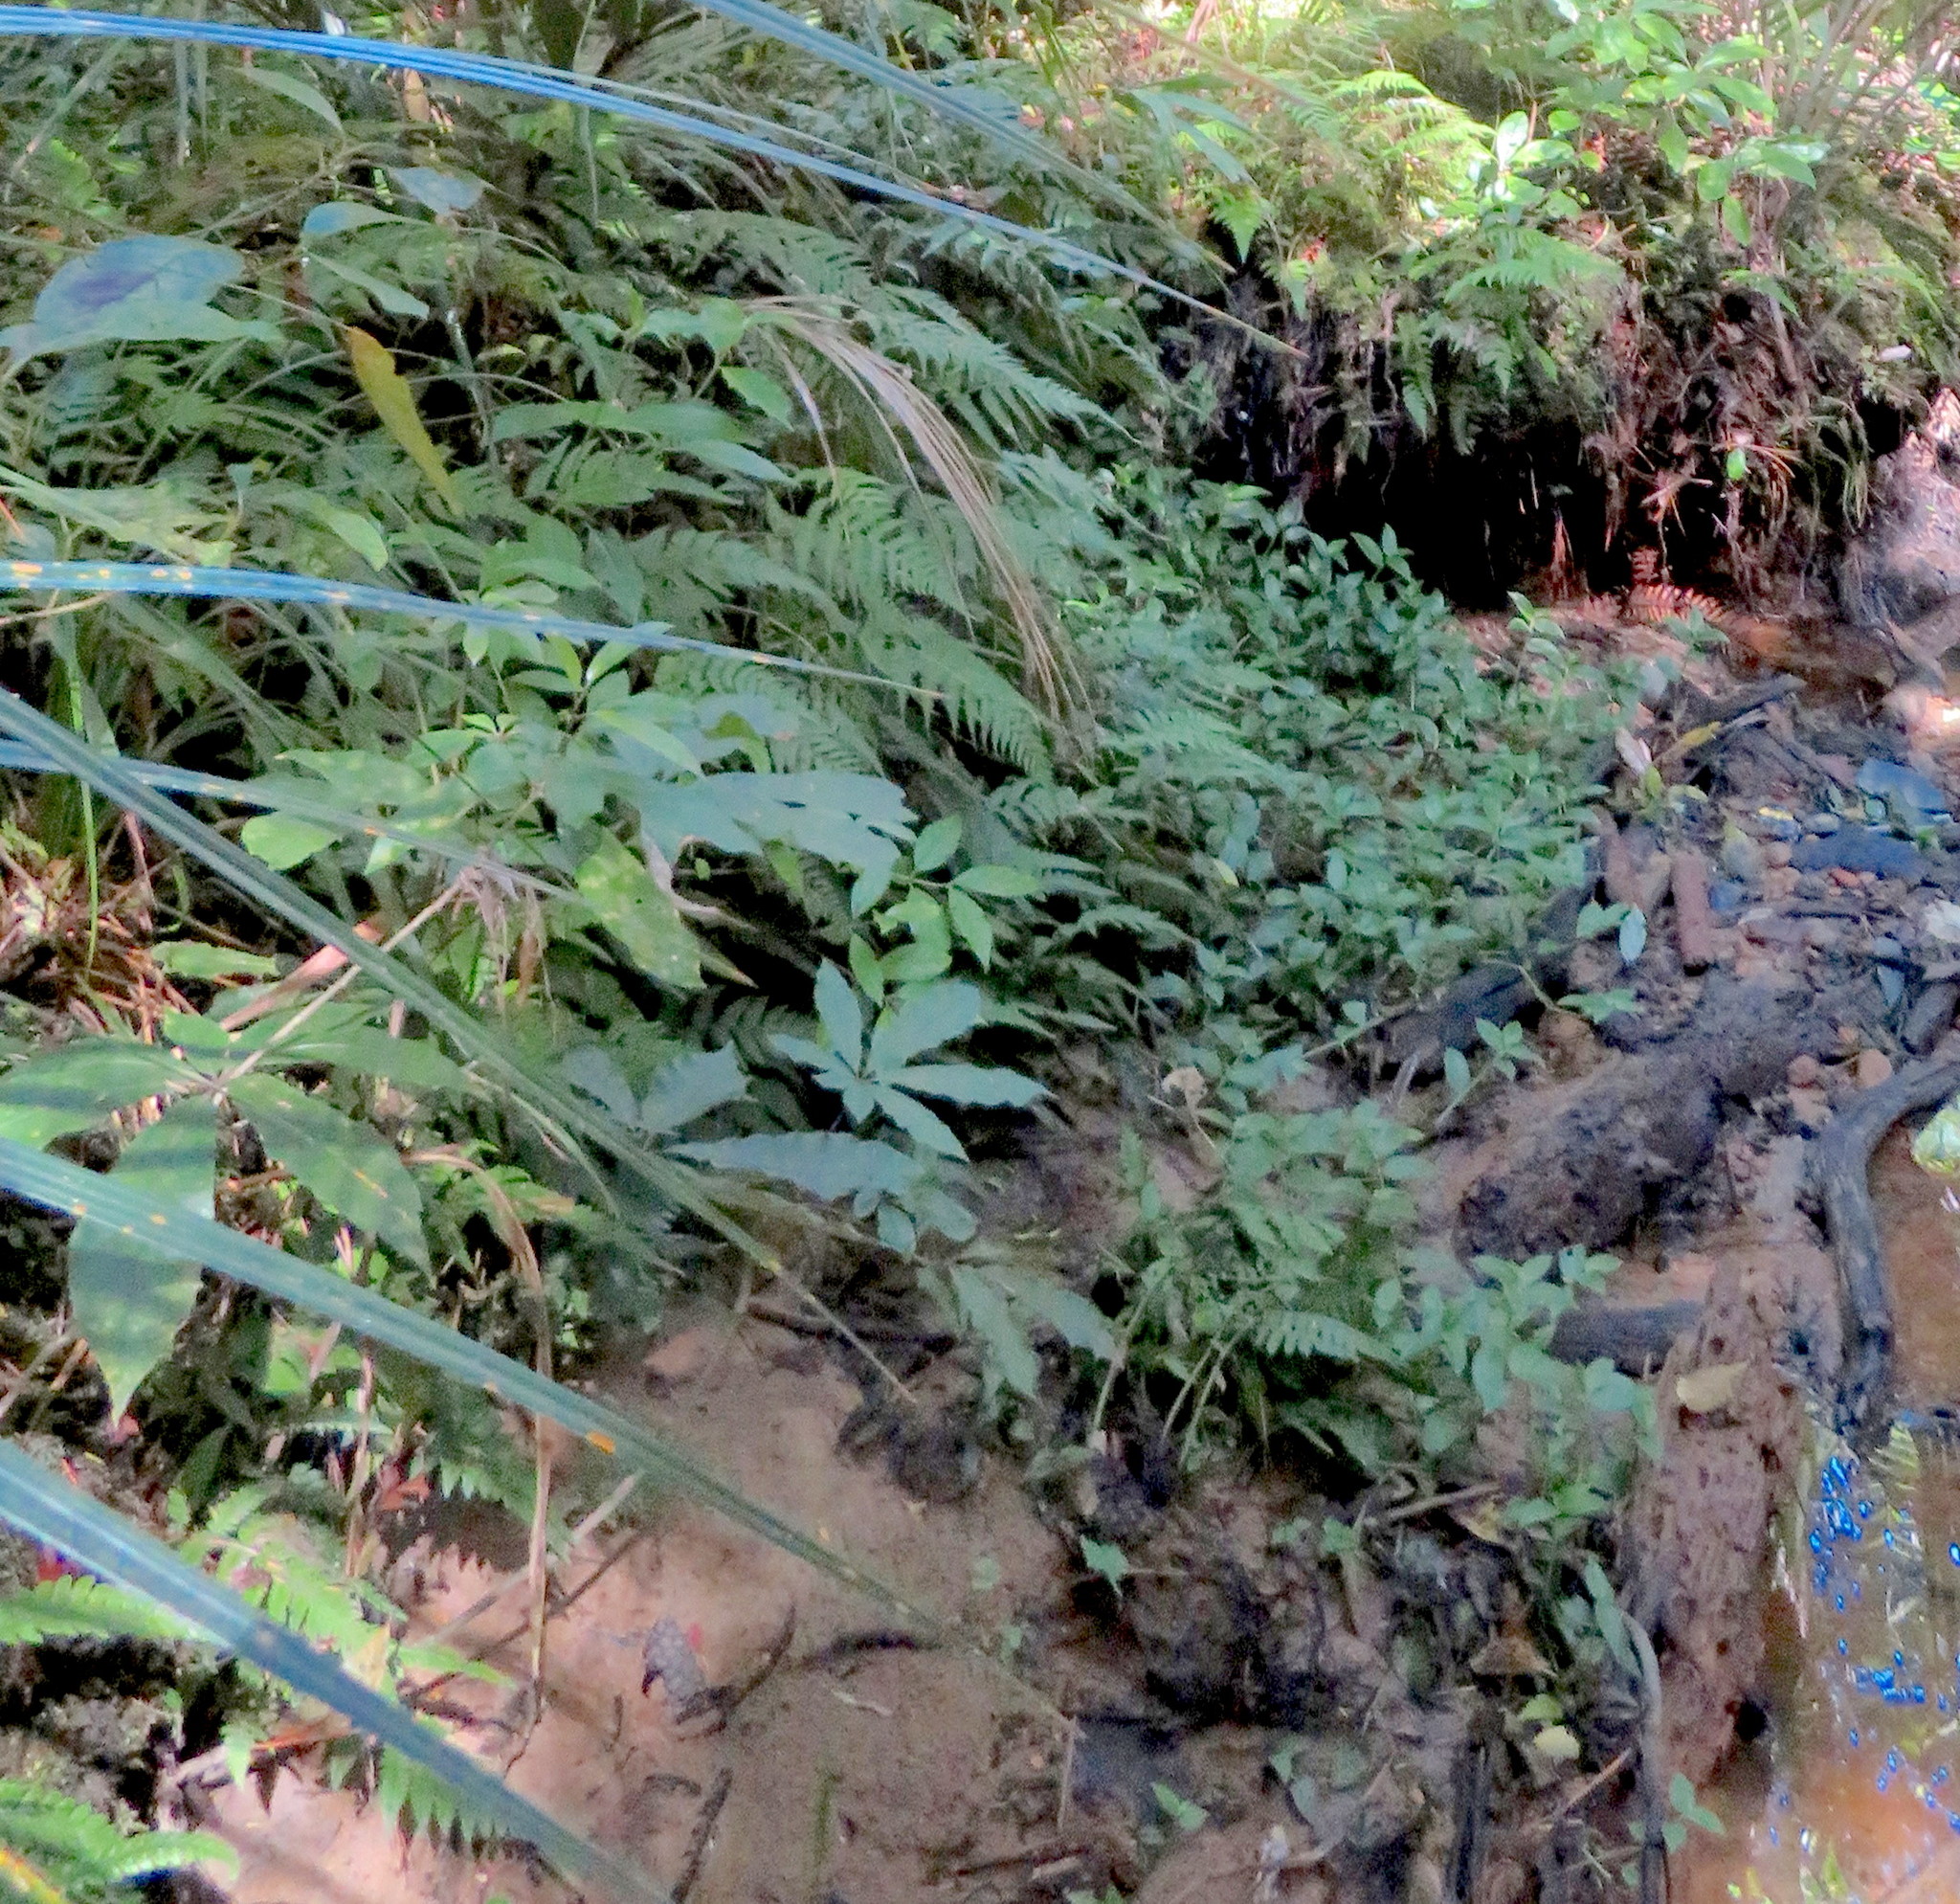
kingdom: Plantae
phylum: Tracheophyta
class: Magnoliopsida
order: Apiales
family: Araliaceae
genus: Schefflera
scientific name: Schefflera digitata
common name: Pate
